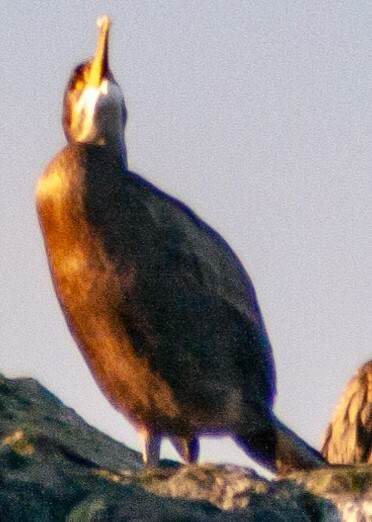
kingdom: Animalia
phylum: Chordata
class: Aves
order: Suliformes
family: Phalacrocoracidae
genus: Phalacrocorax
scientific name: Phalacrocorax aristotelis
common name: European shag
